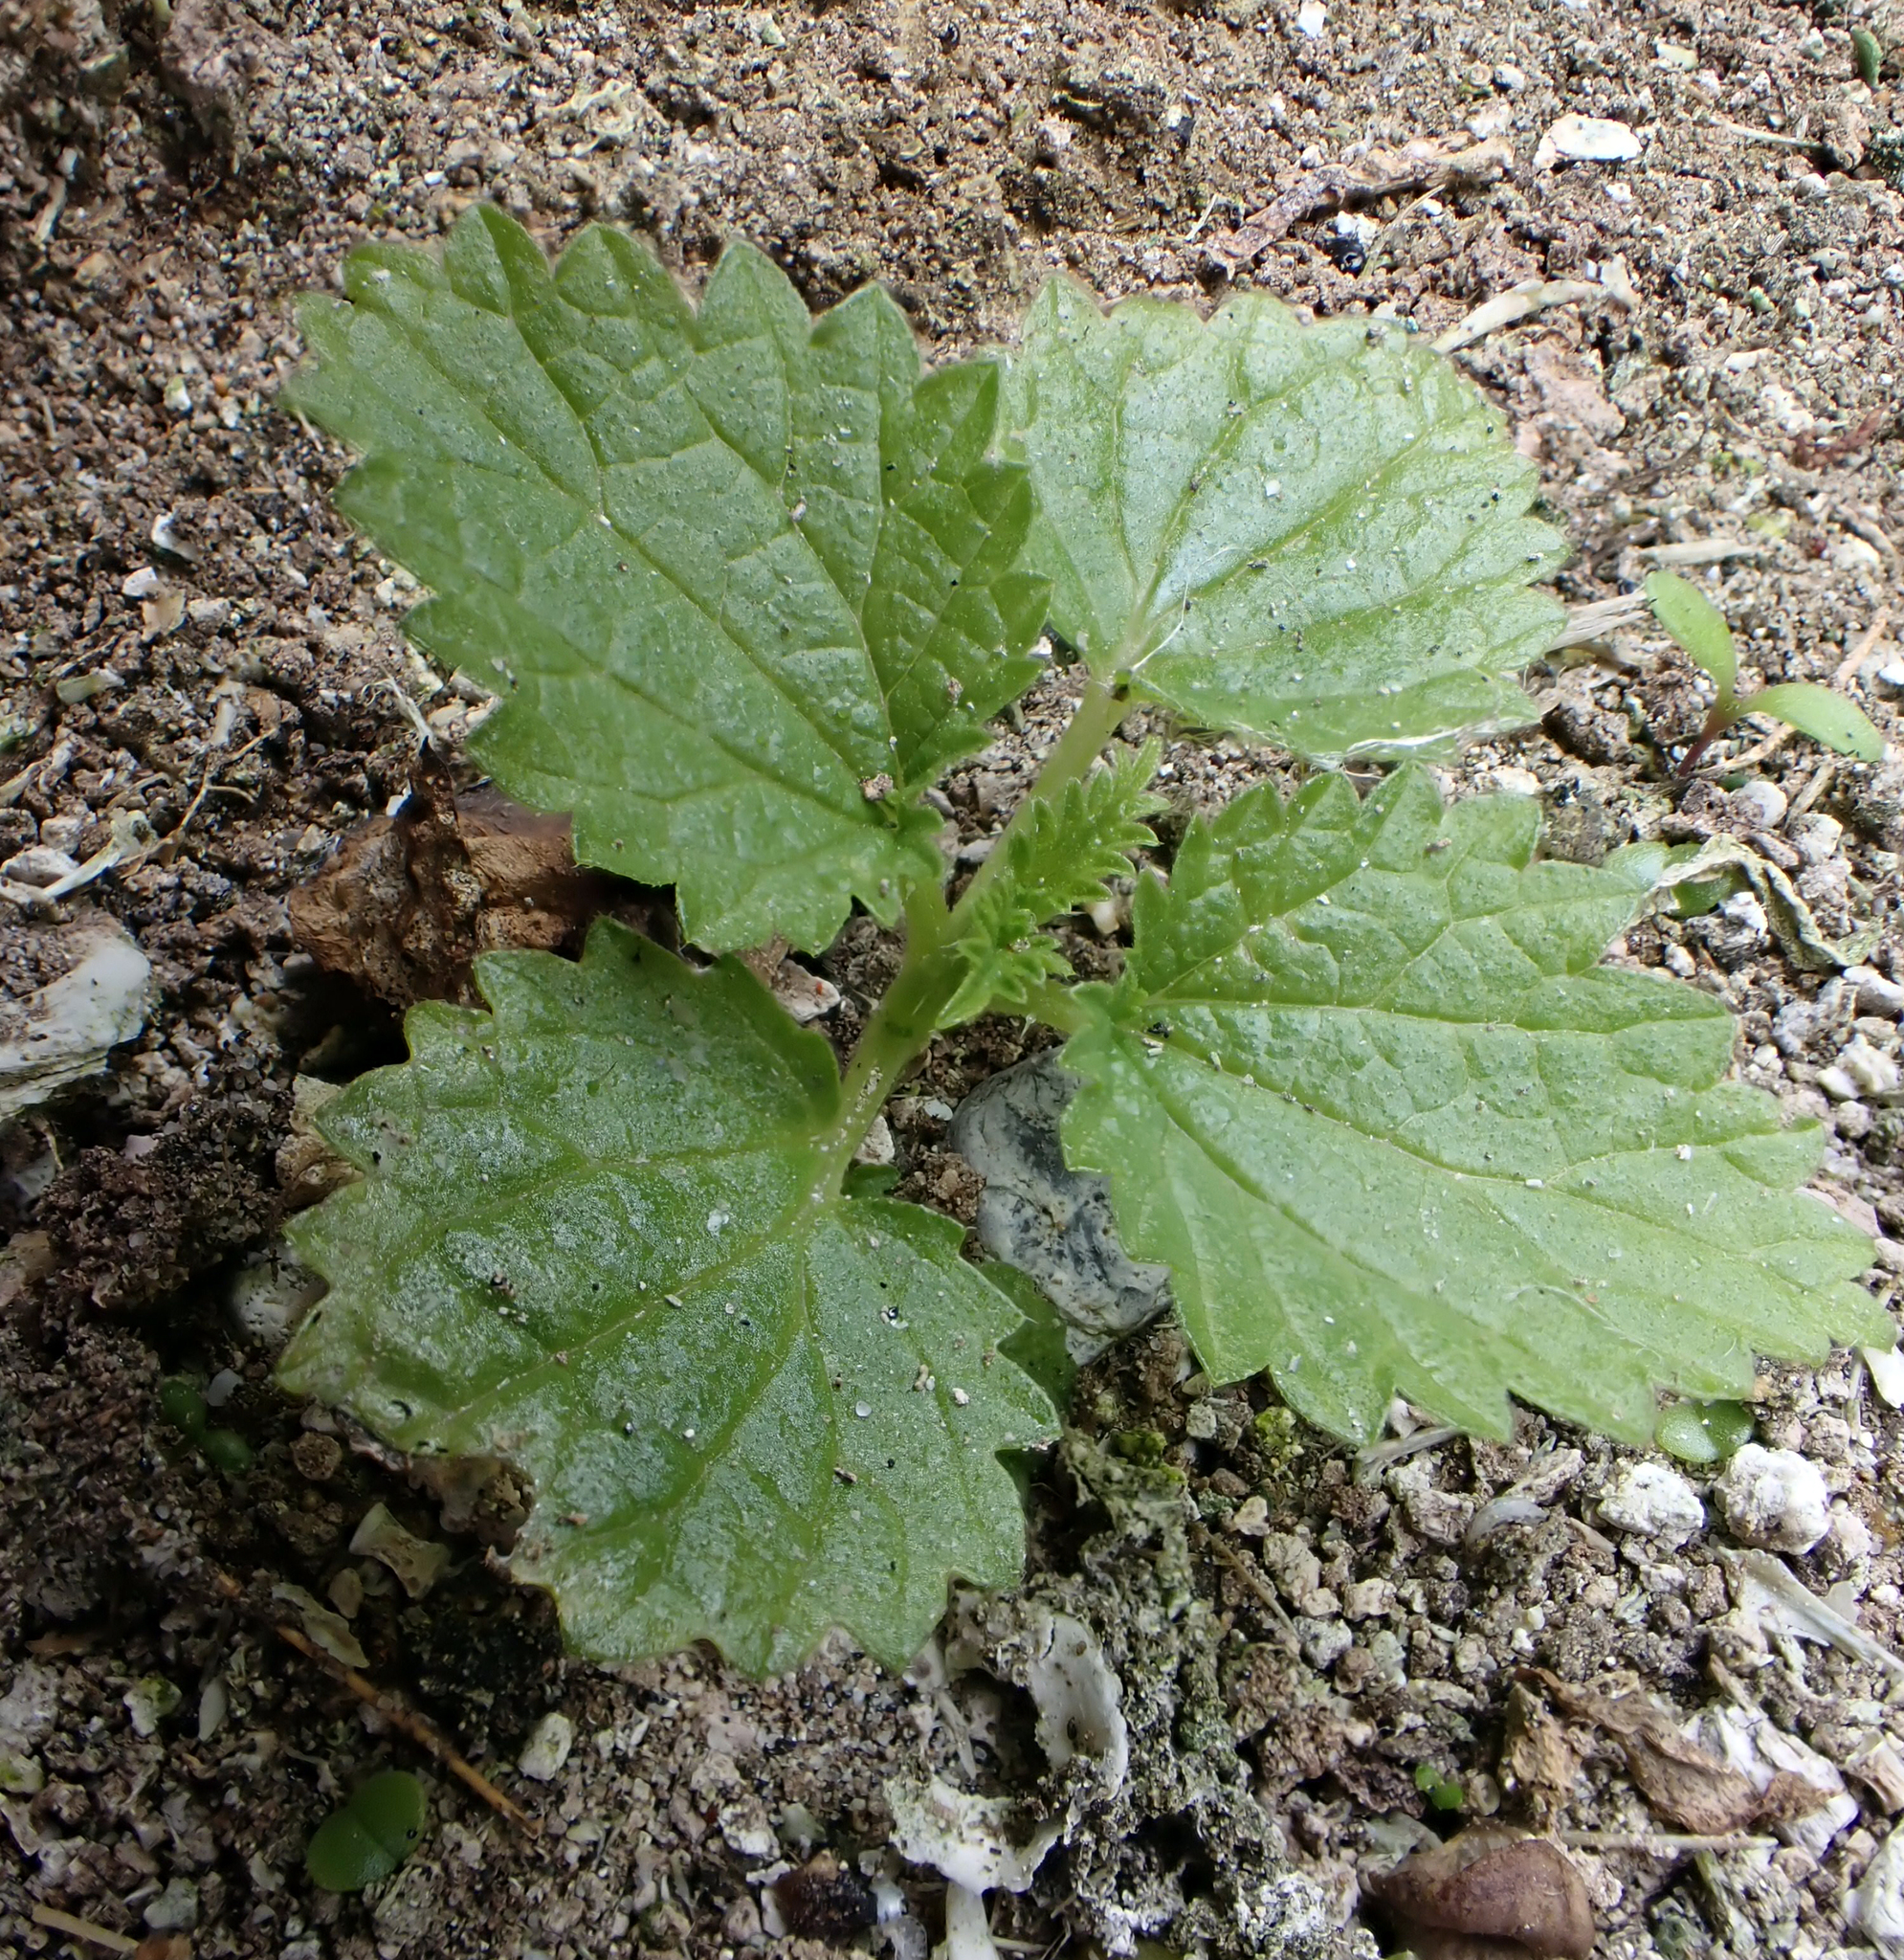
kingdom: Plantae
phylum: Tracheophyta
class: Magnoliopsida
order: Rosales
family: Urticaceae
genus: Urtica
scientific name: Urtica australis
